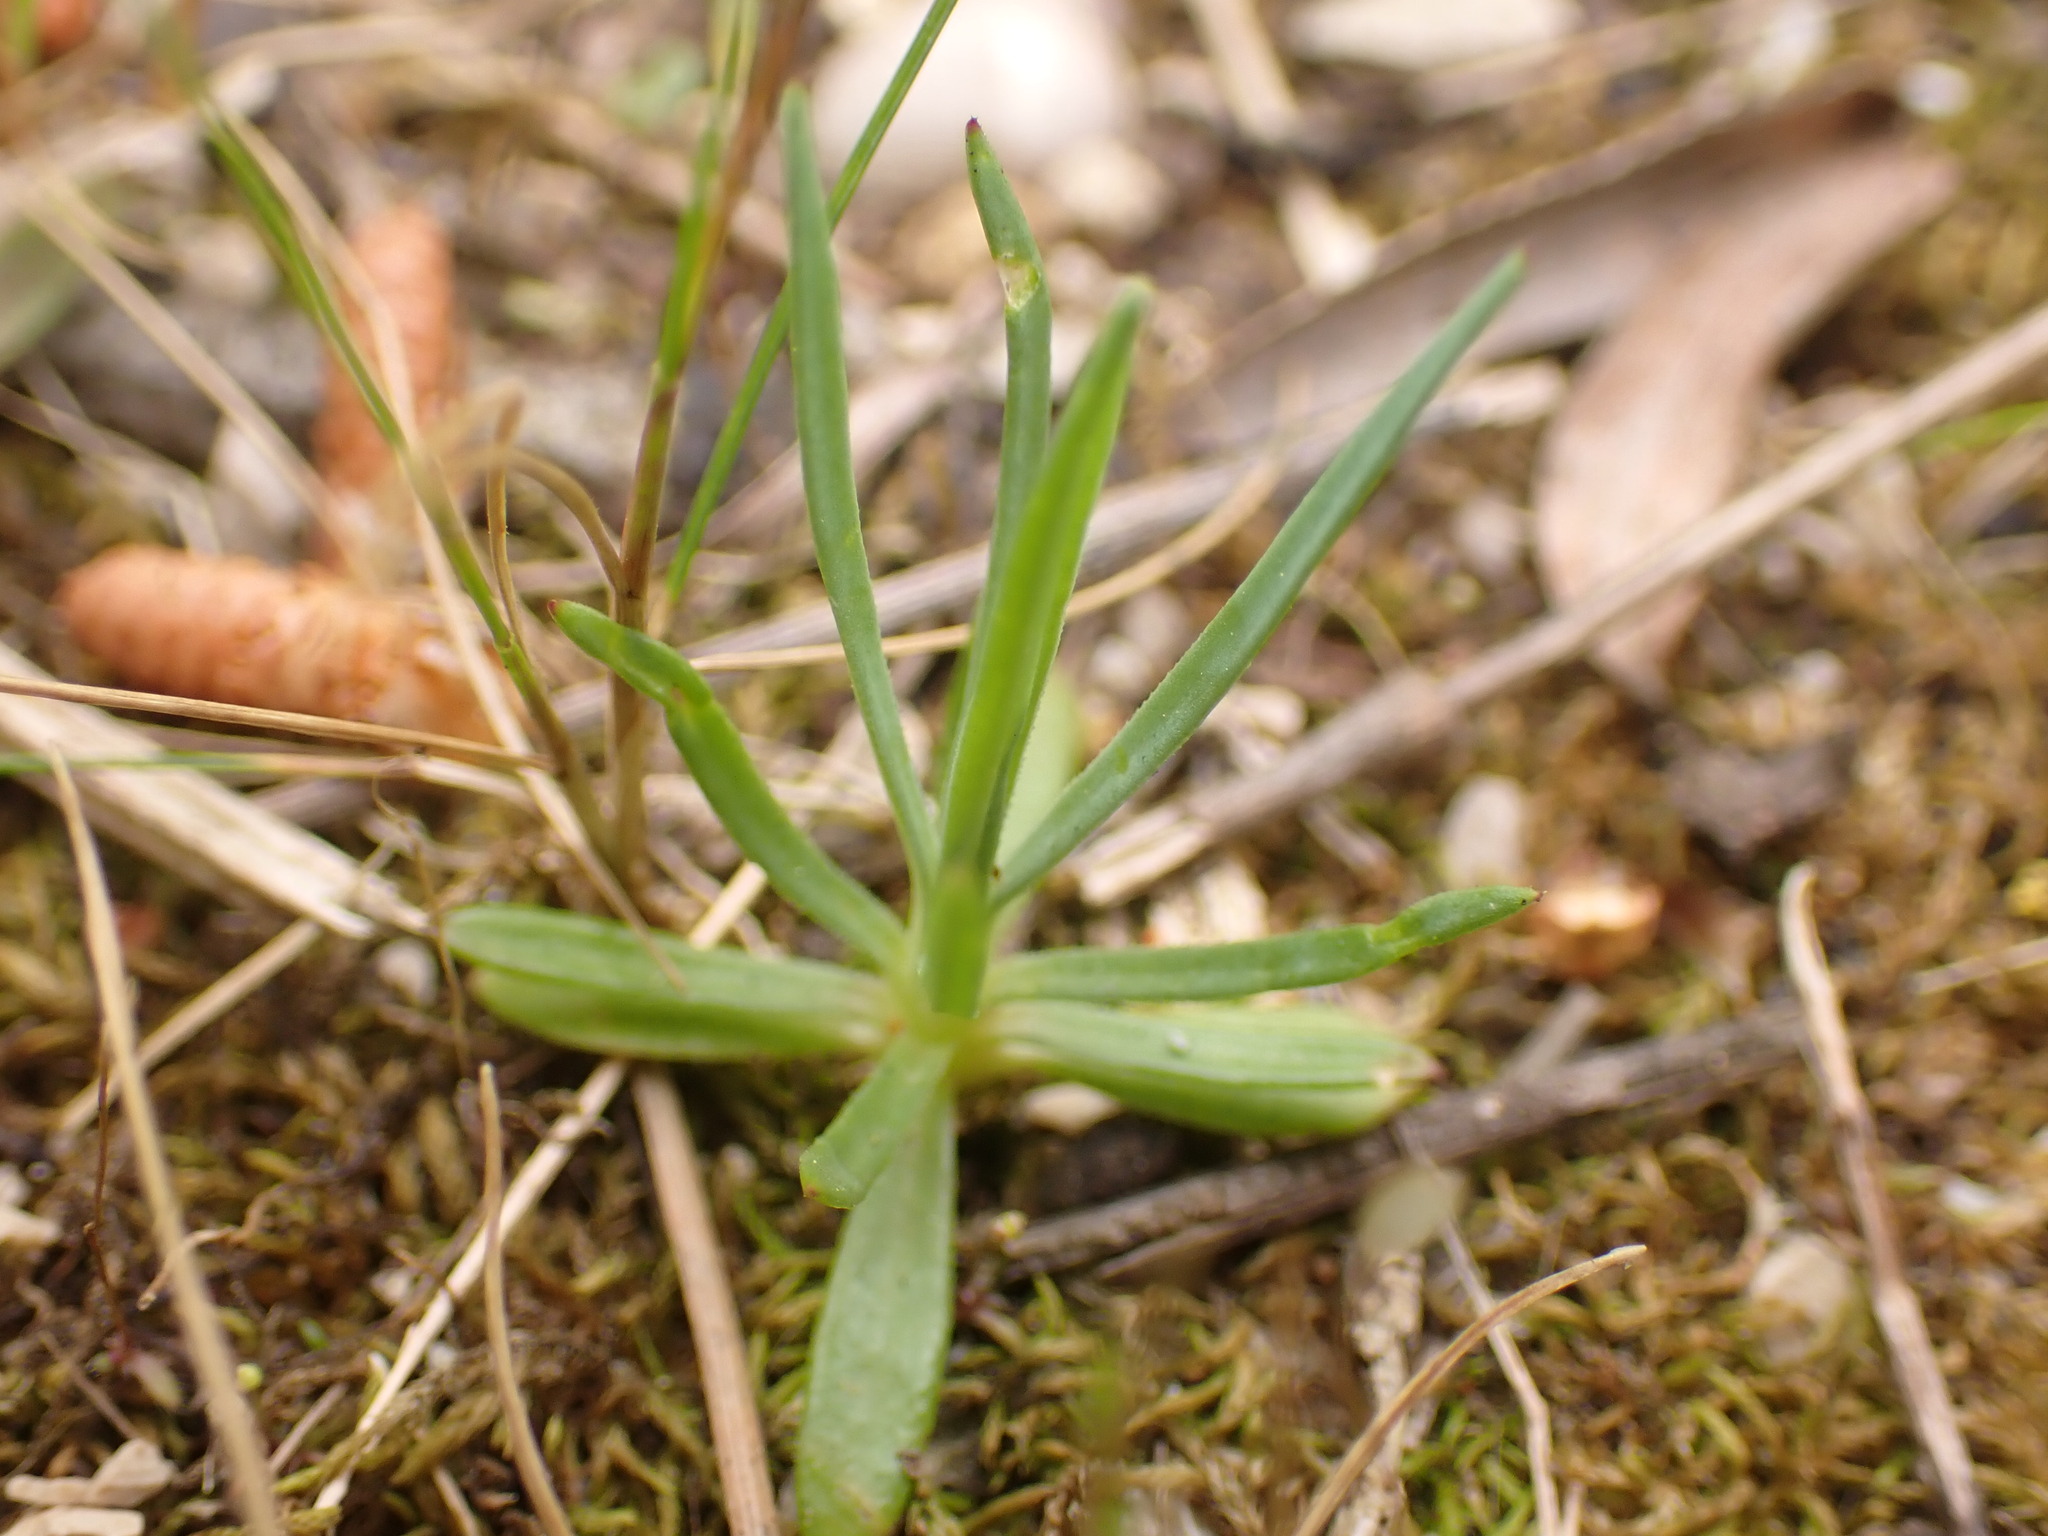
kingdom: Plantae
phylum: Tracheophyta
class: Magnoliopsida
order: Caryophyllales
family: Caryophyllaceae
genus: Petrorhagia
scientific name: Petrorhagia prolifera
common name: Proliferous pink
